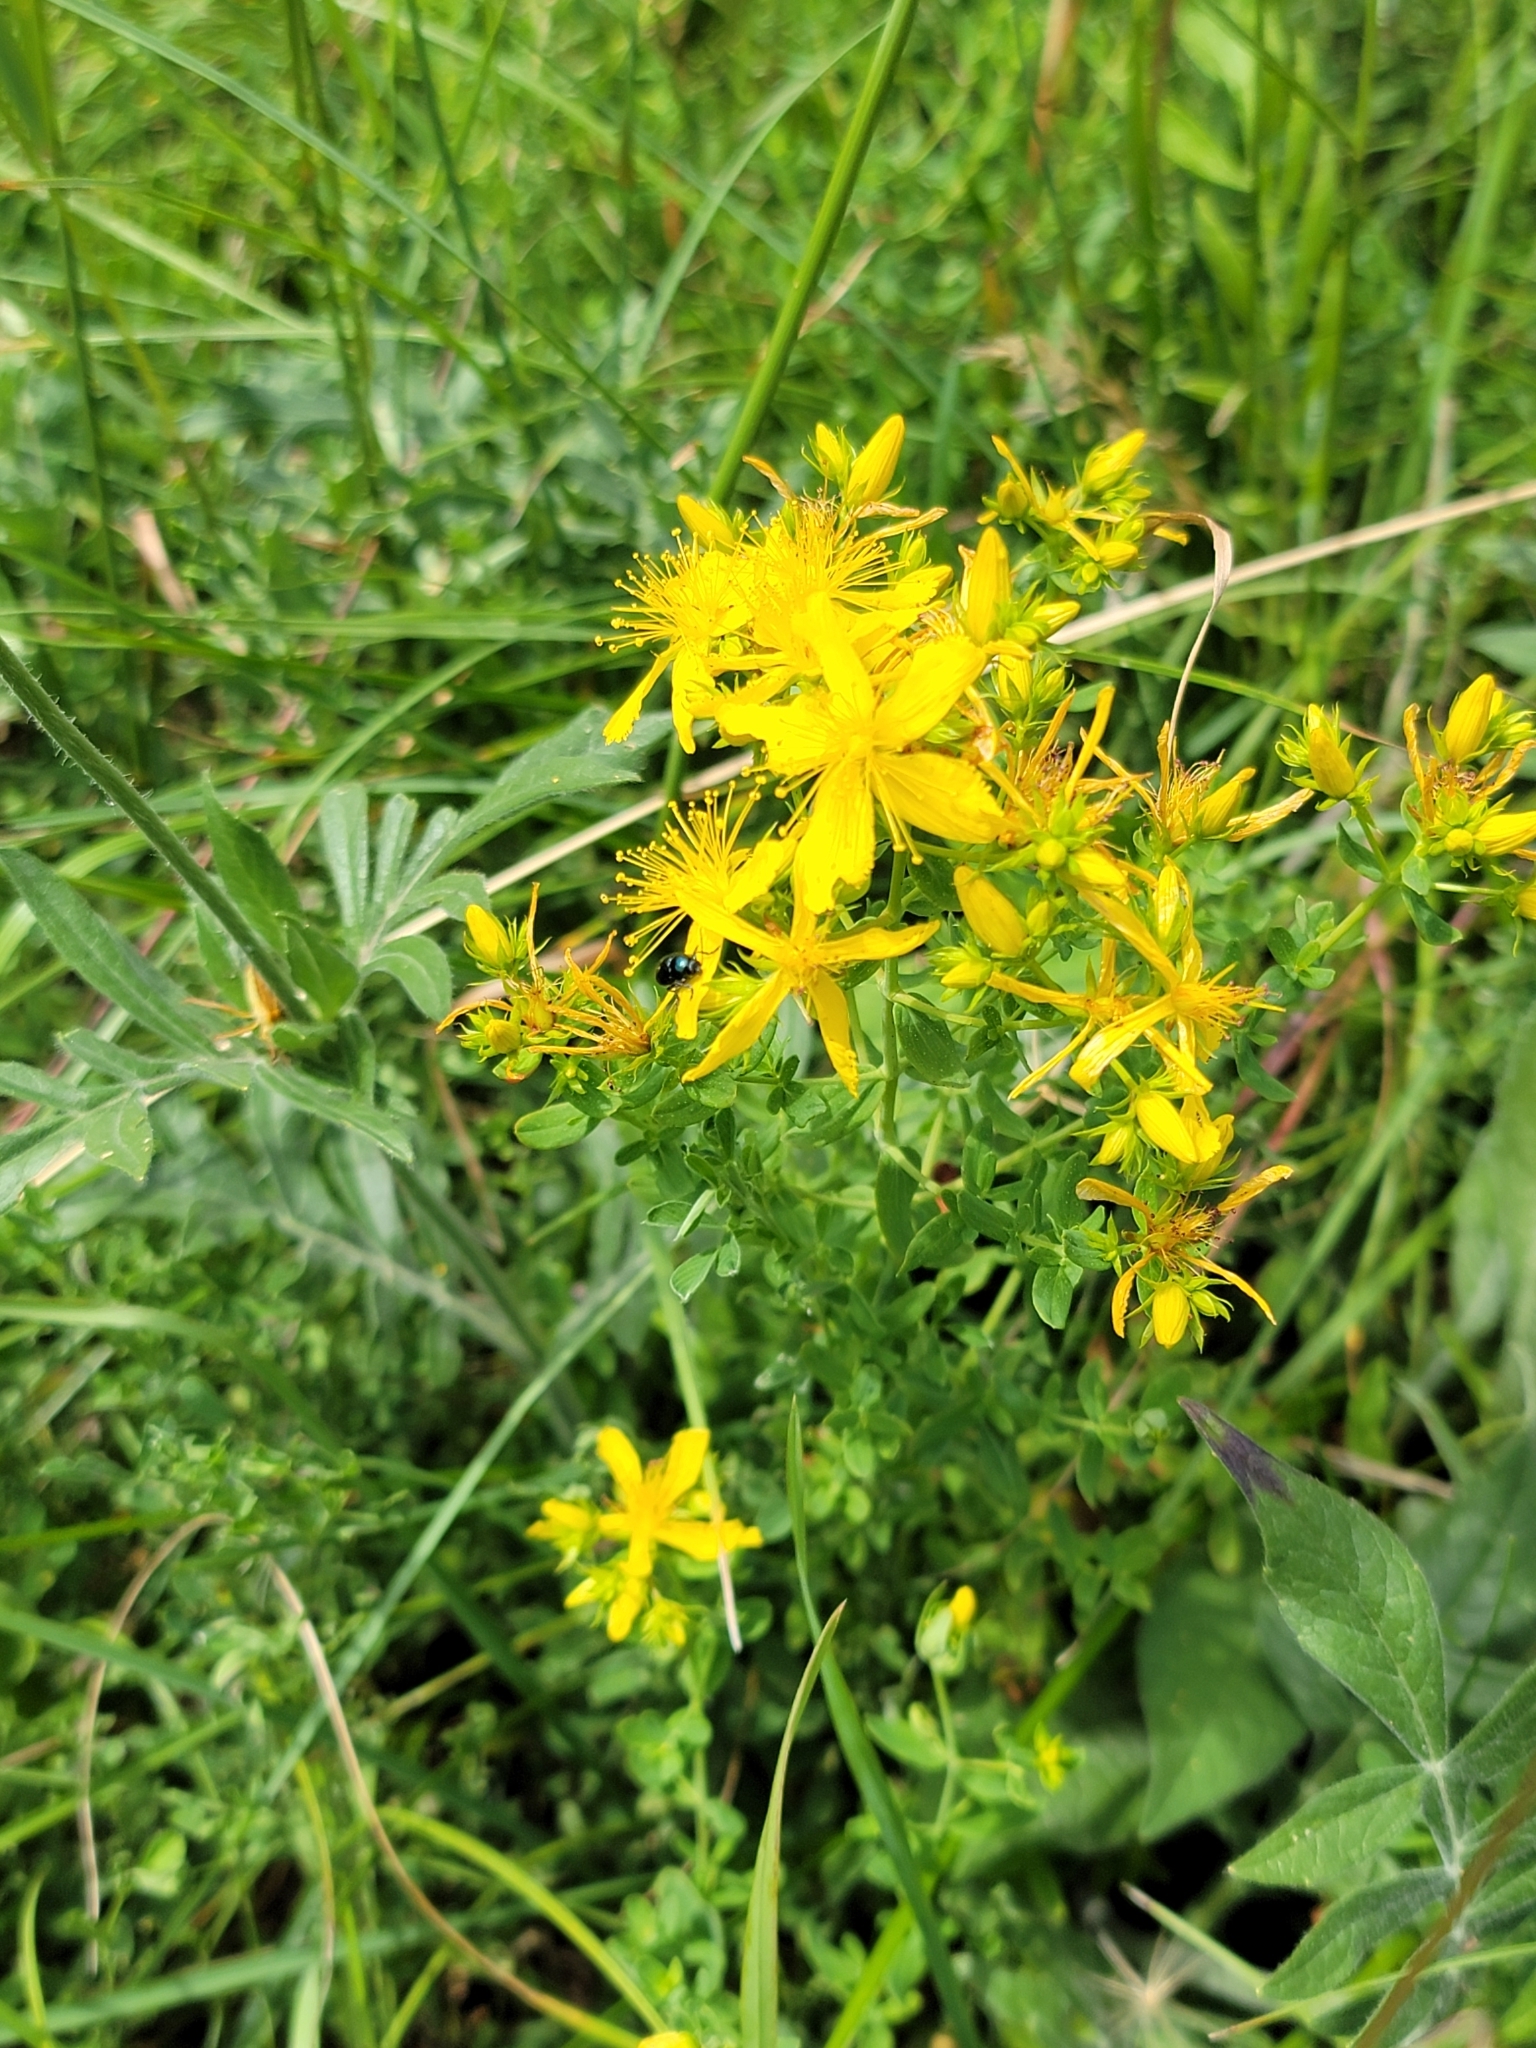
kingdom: Plantae
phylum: Tracheophyta
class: Magnoliopsida
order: Malpighiales
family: Hypericaceae
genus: Hypericum
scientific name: Hypericum perforatum
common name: Common st. johnswort
